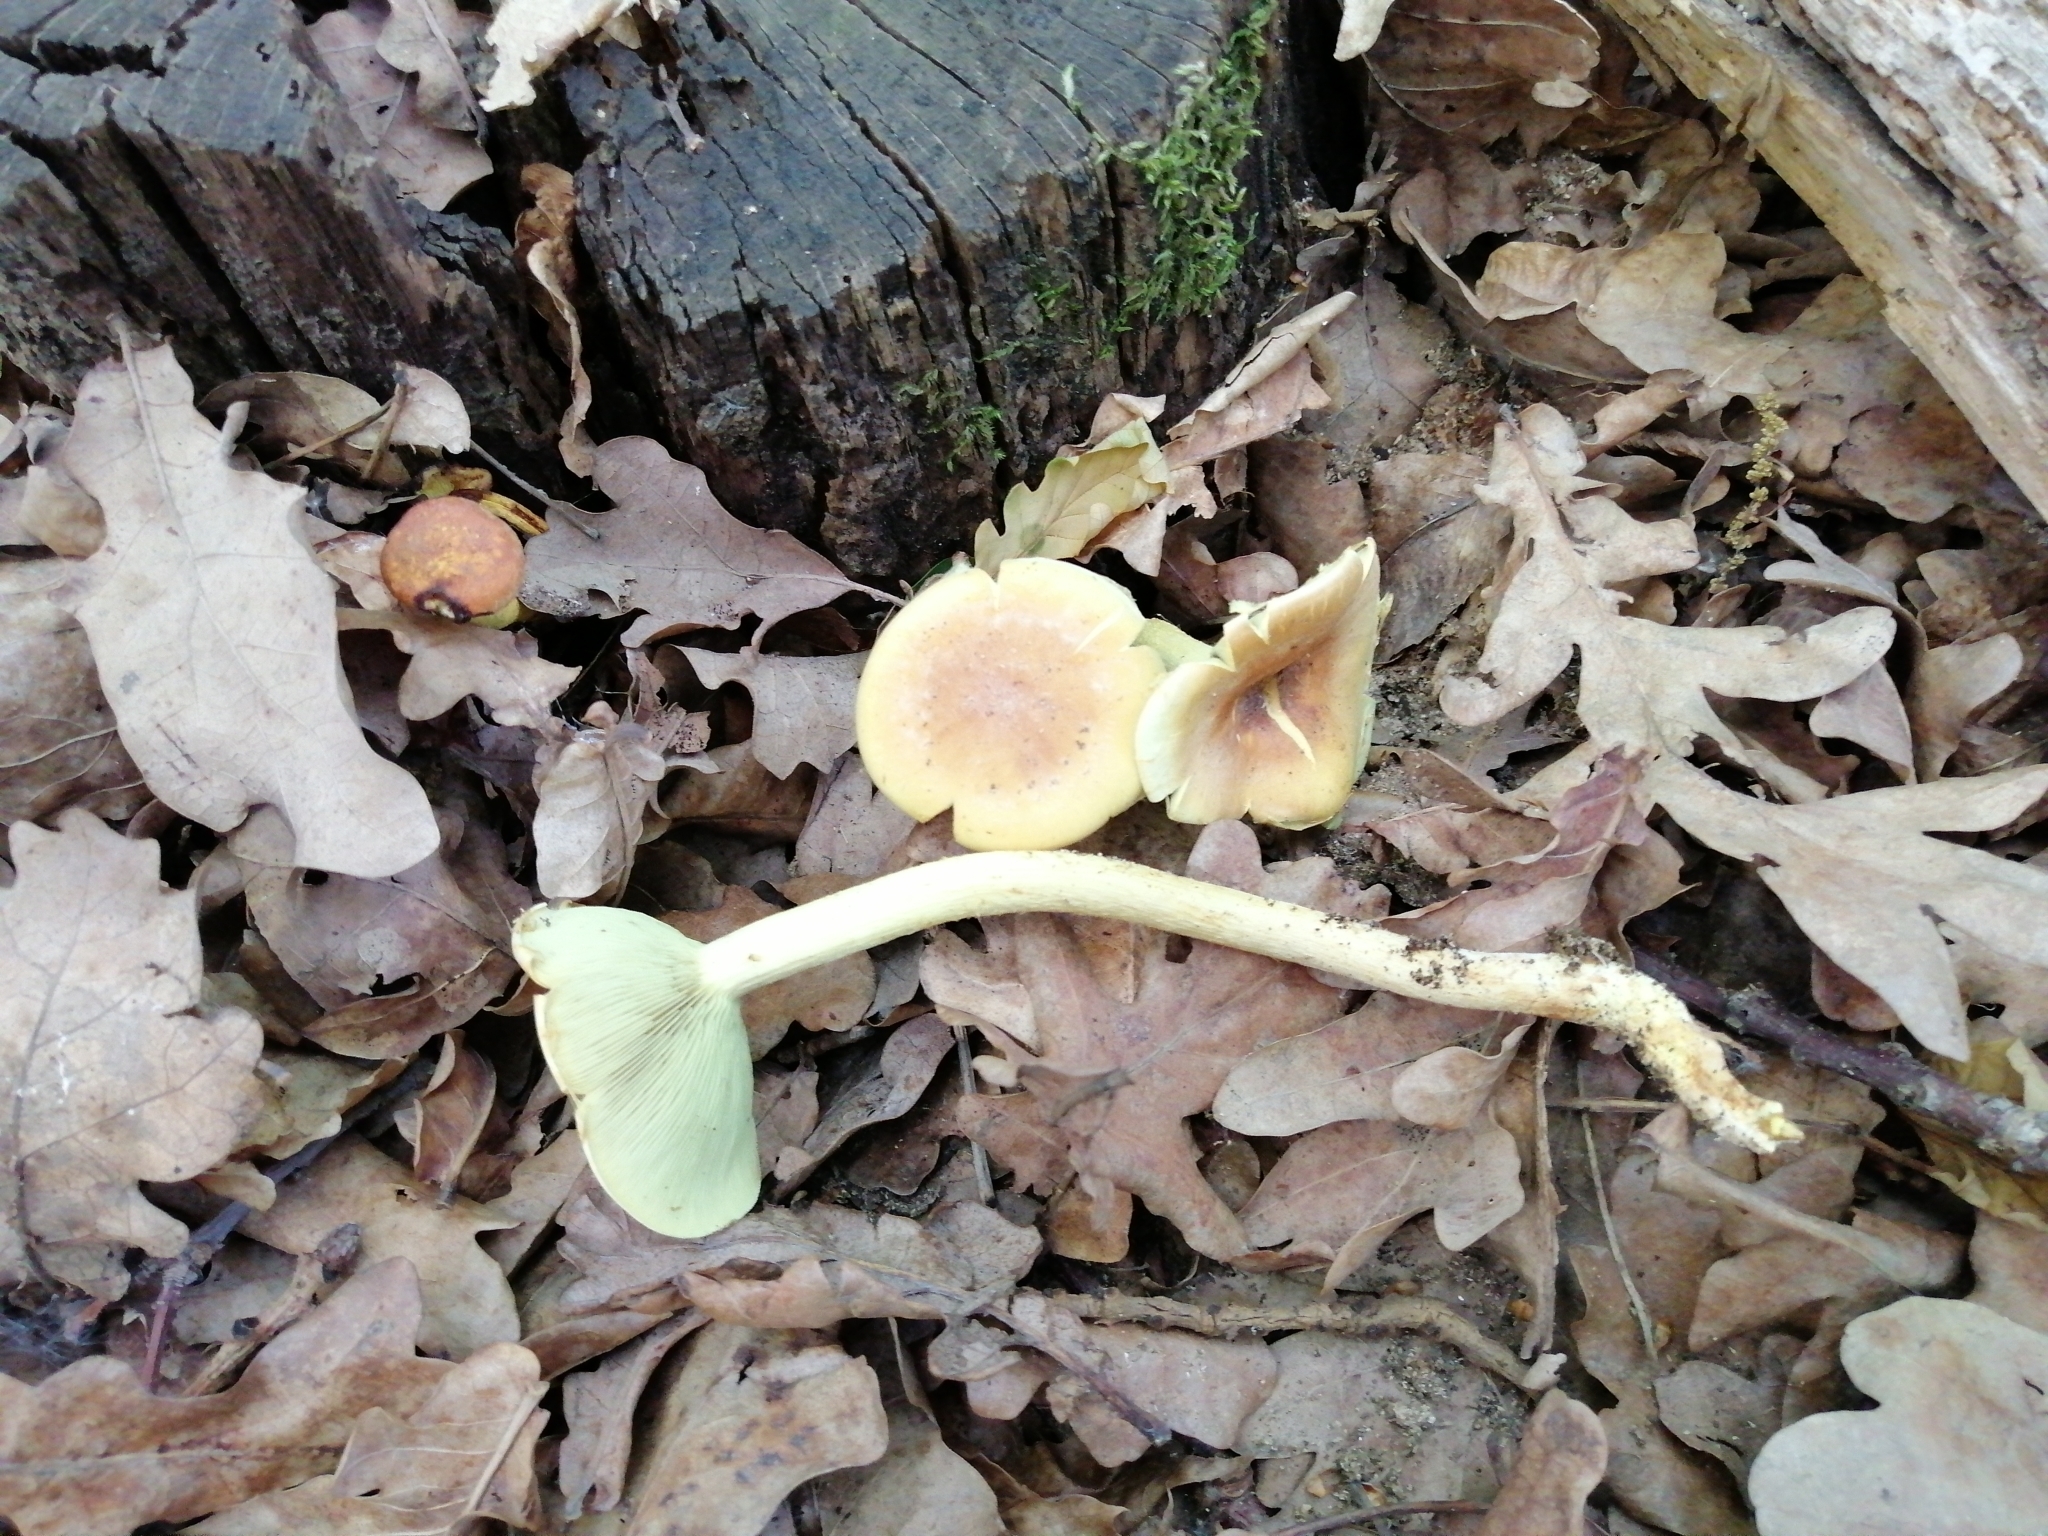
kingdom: Fungi
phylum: Basidiomycota
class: Agaricomycetes
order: Agaricales
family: Strophariaceae
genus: Hypholoma
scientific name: Hypholoma fasciculare
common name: Sulphur tuft
